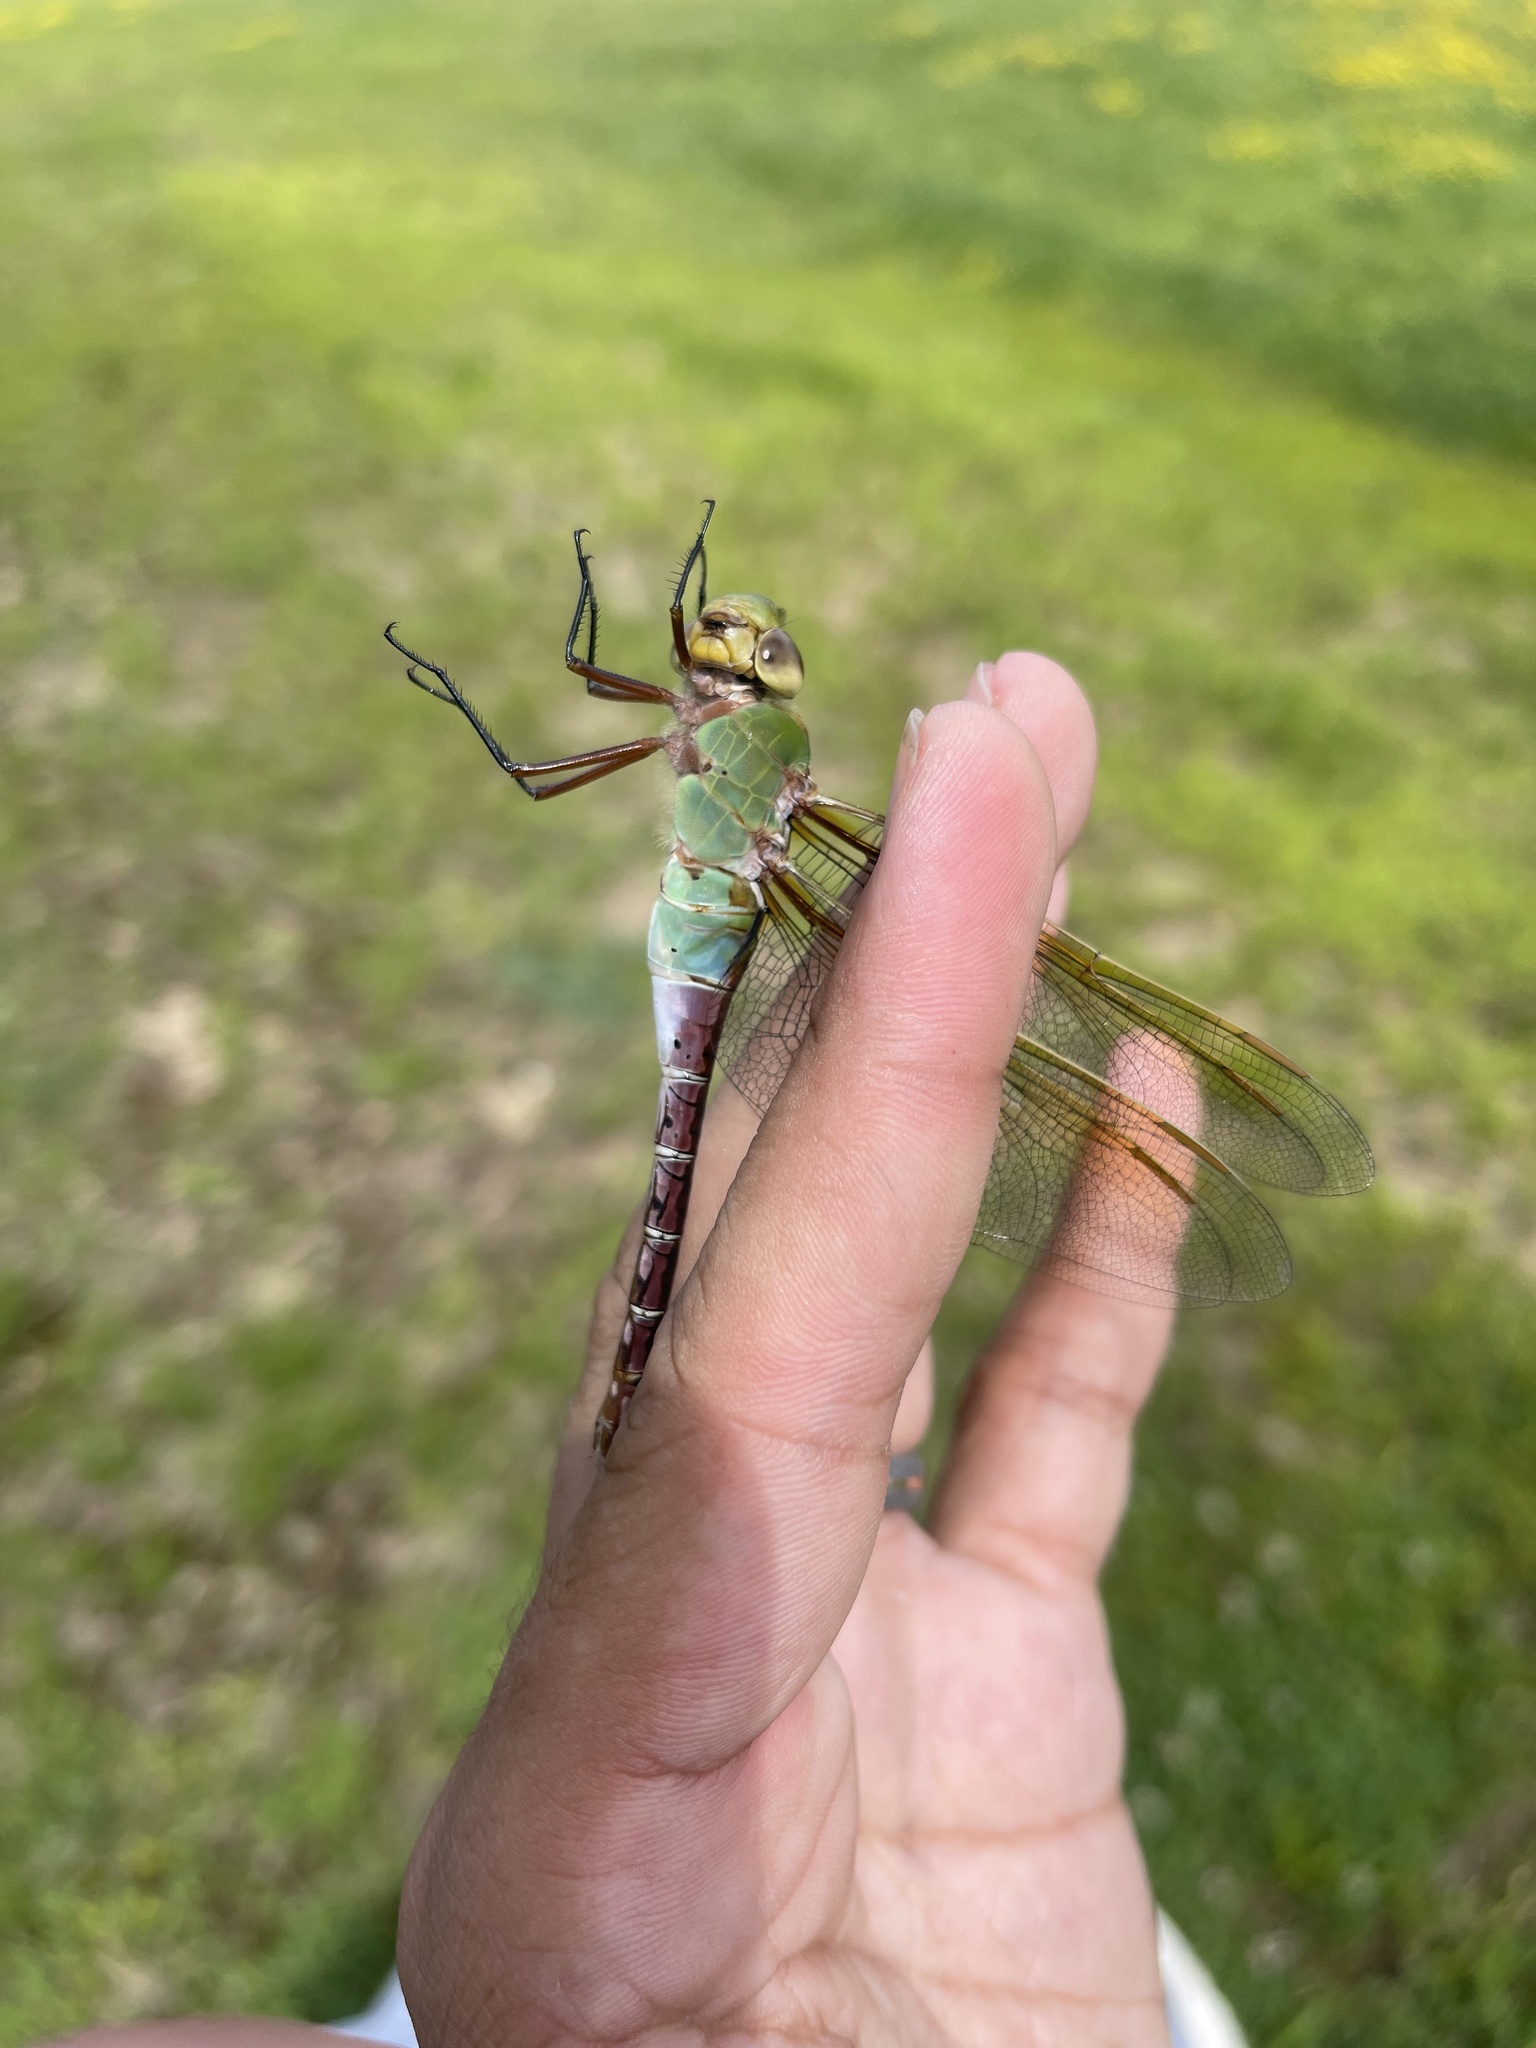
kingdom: Animalia
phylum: Arthropoda
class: Insecta
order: Odonata
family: Aeshnidae
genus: Anax
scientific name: Anax junius
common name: Common green darner
